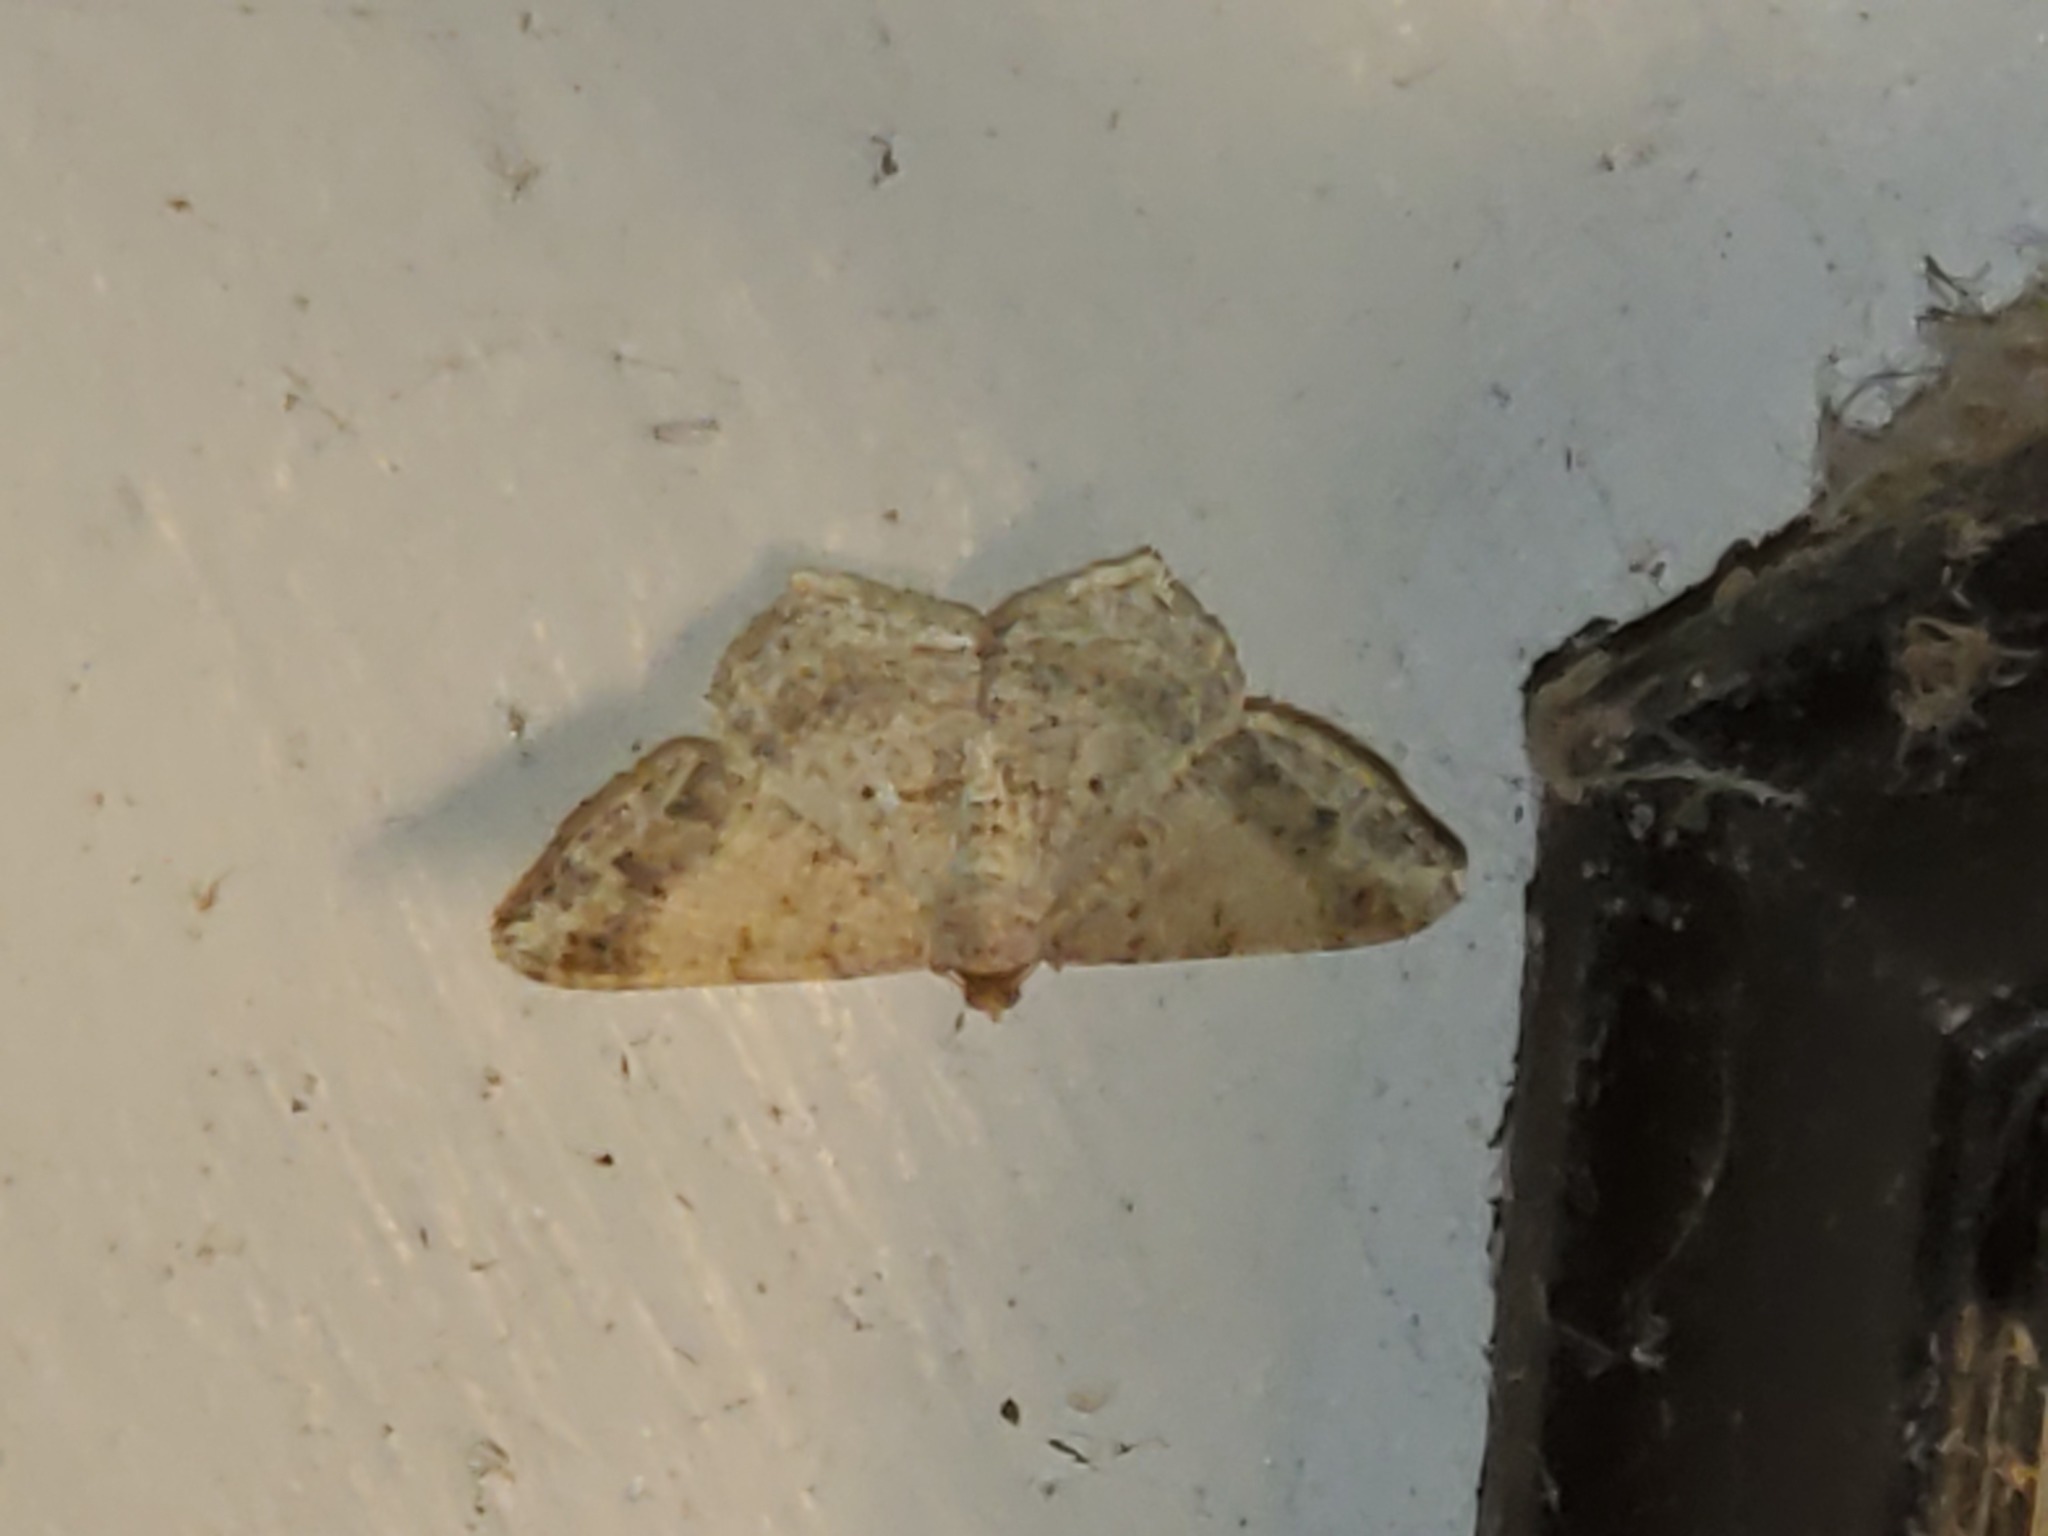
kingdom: Animalia
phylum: Arthropoda
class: Insecta
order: Lepidoptera
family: Geometridae
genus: Macaria
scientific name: Macaria abydata
